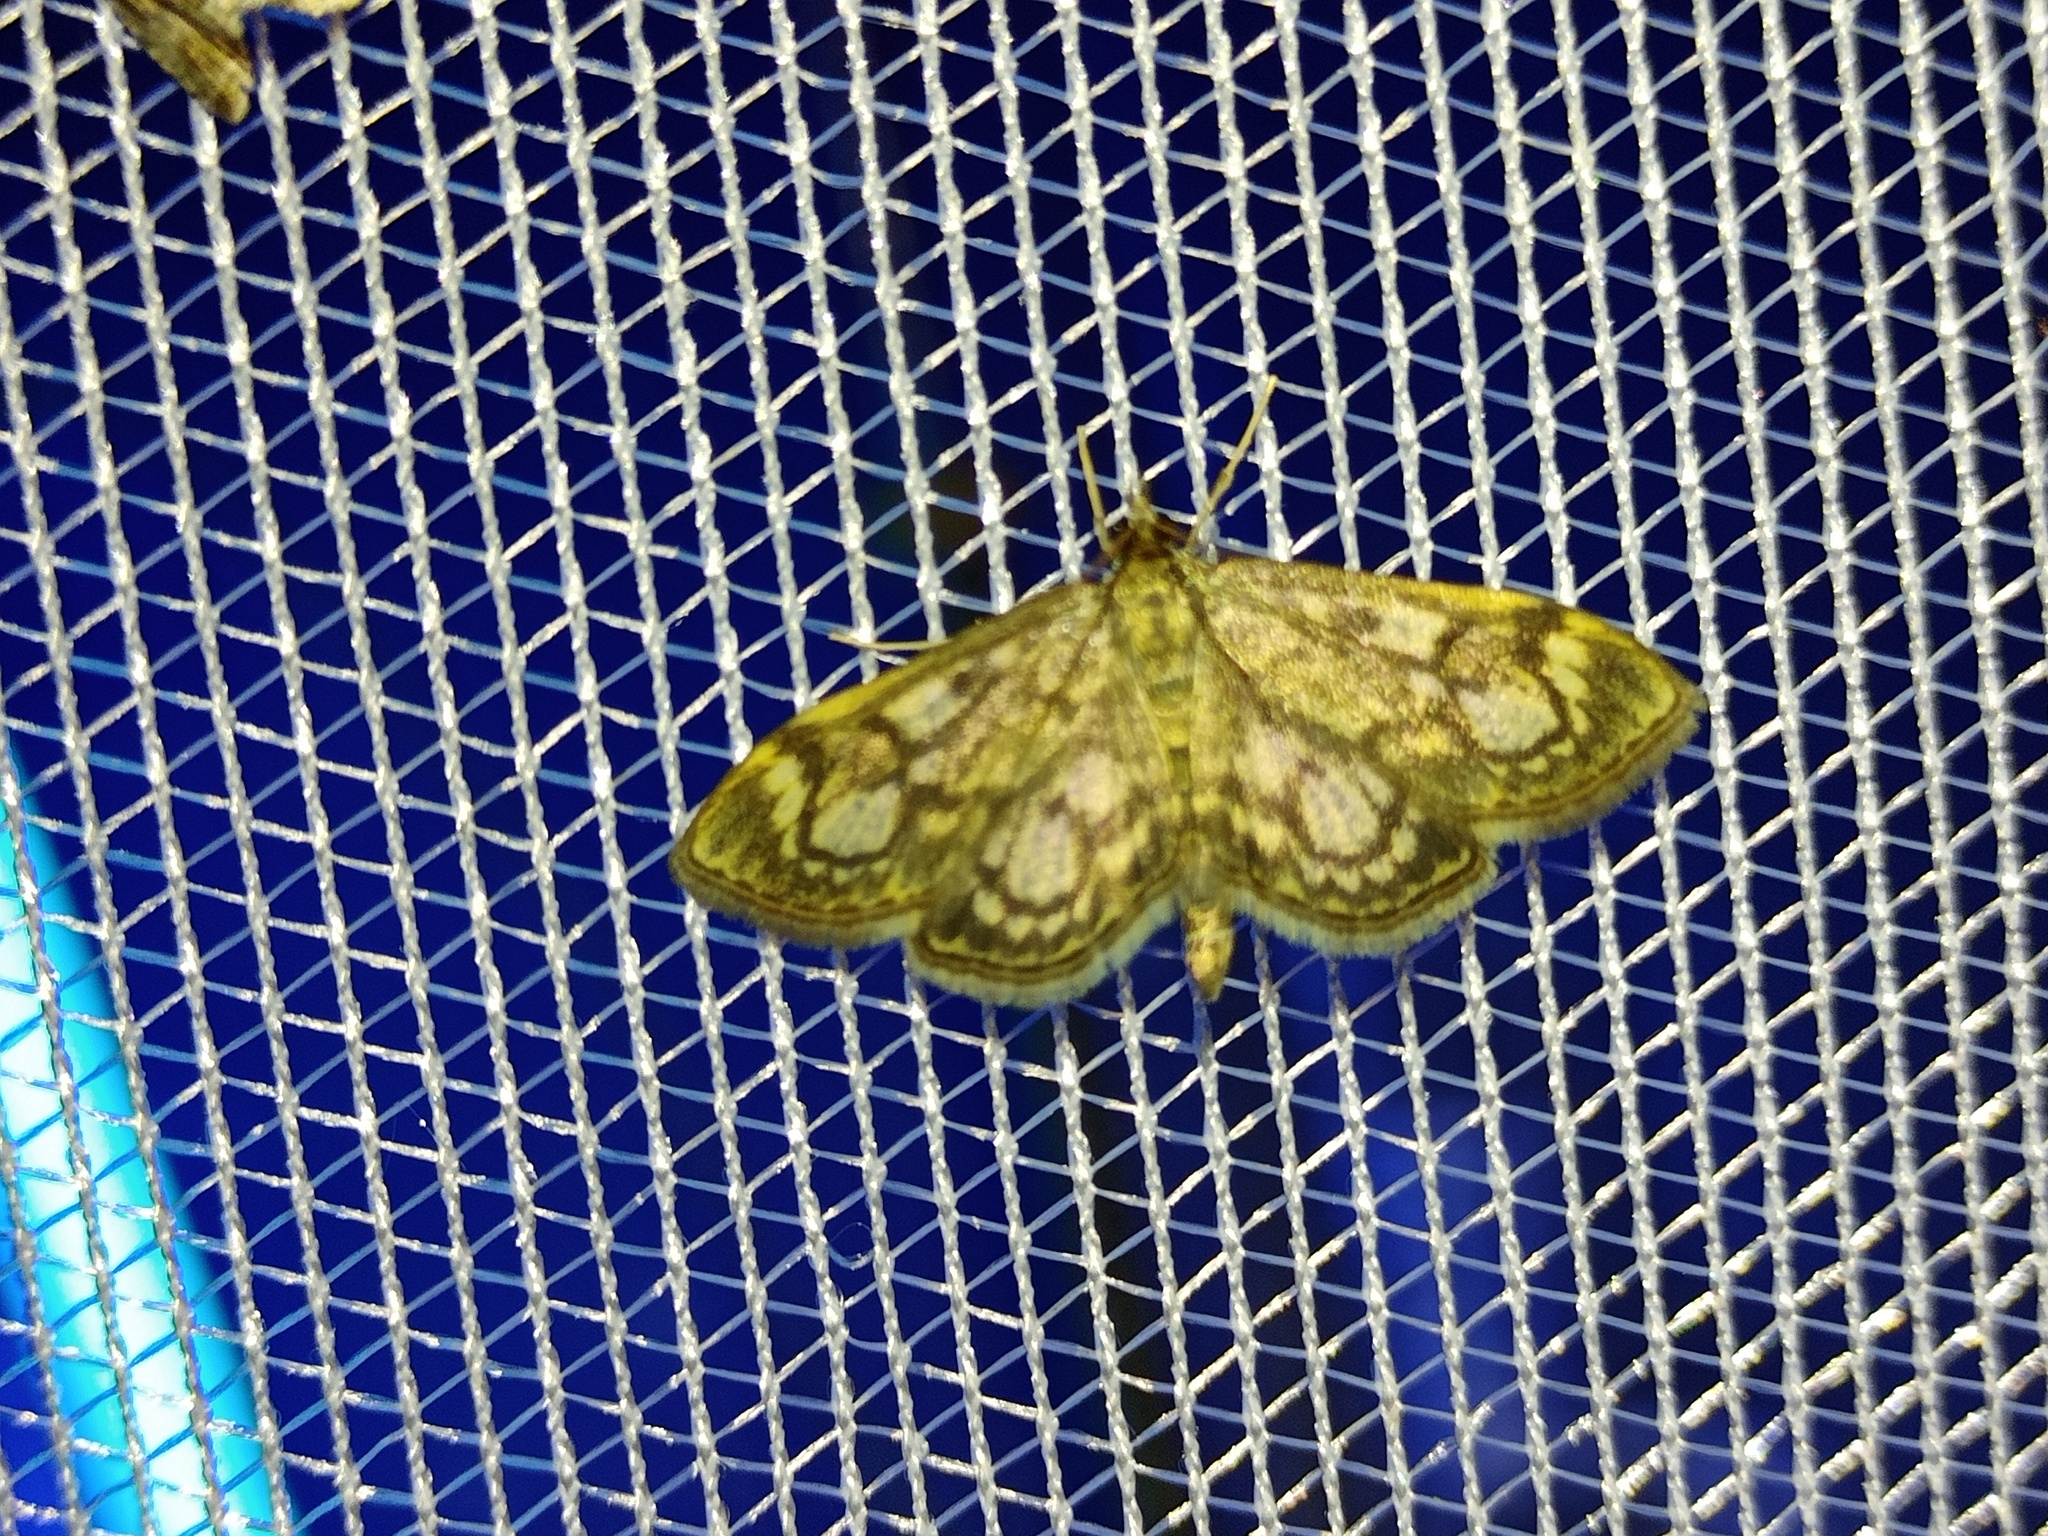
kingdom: Animalia
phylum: Arthropoda
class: Insecta
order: Lepidoptera
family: Crambidae
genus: Anania
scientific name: Anania coronata
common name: Elder pearl
